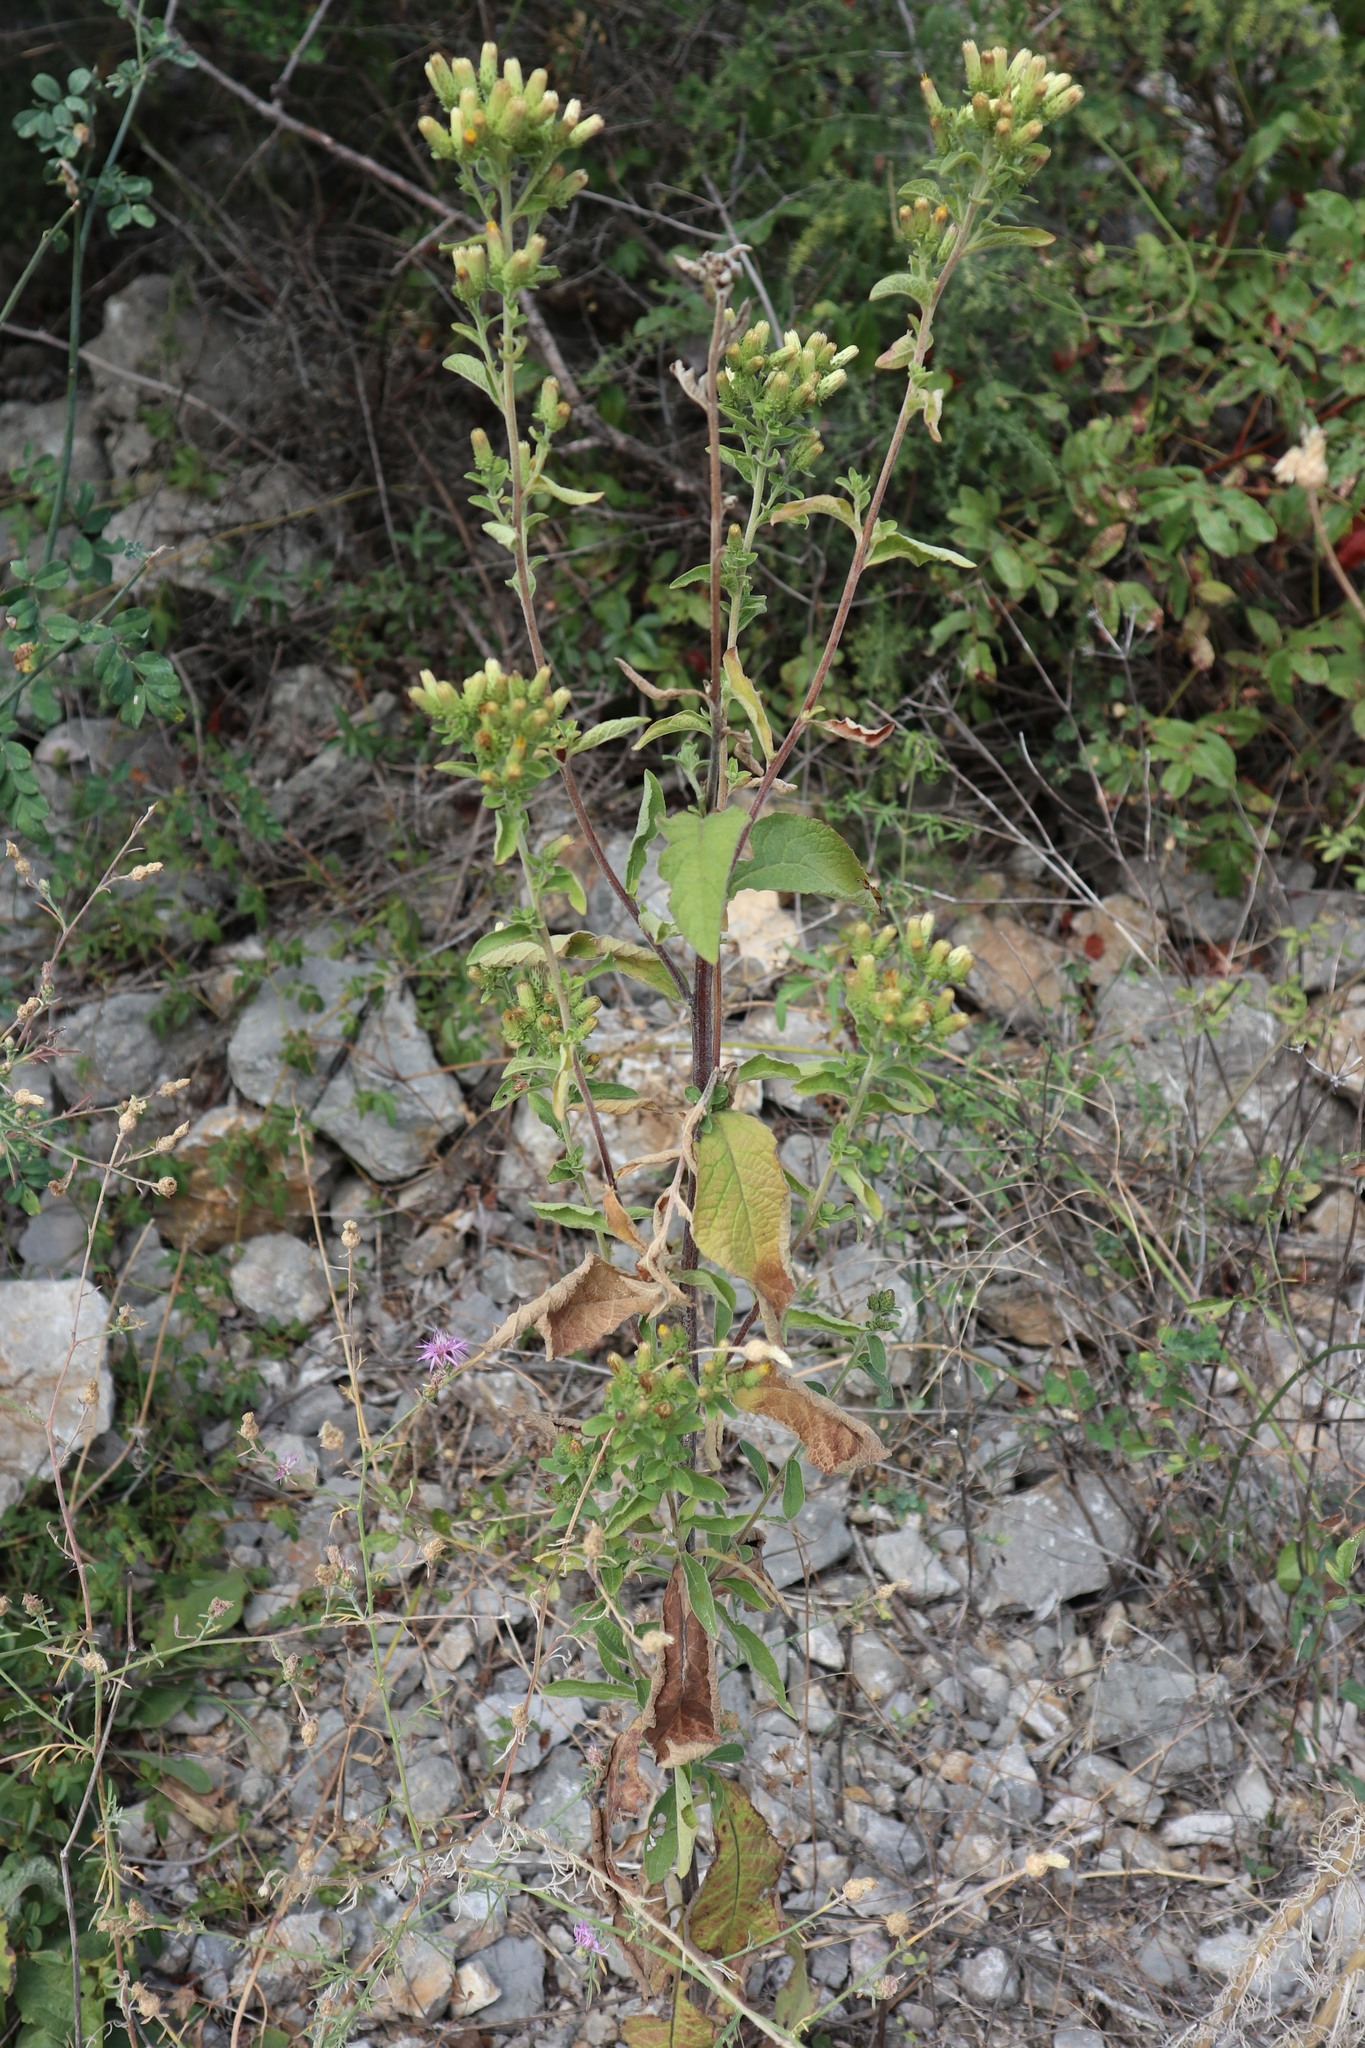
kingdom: Plantae
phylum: Tracheophyta
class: Magnoliopsida
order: Asterales
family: Asteraceae
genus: Pentanema
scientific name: Pentanema squarrosum
